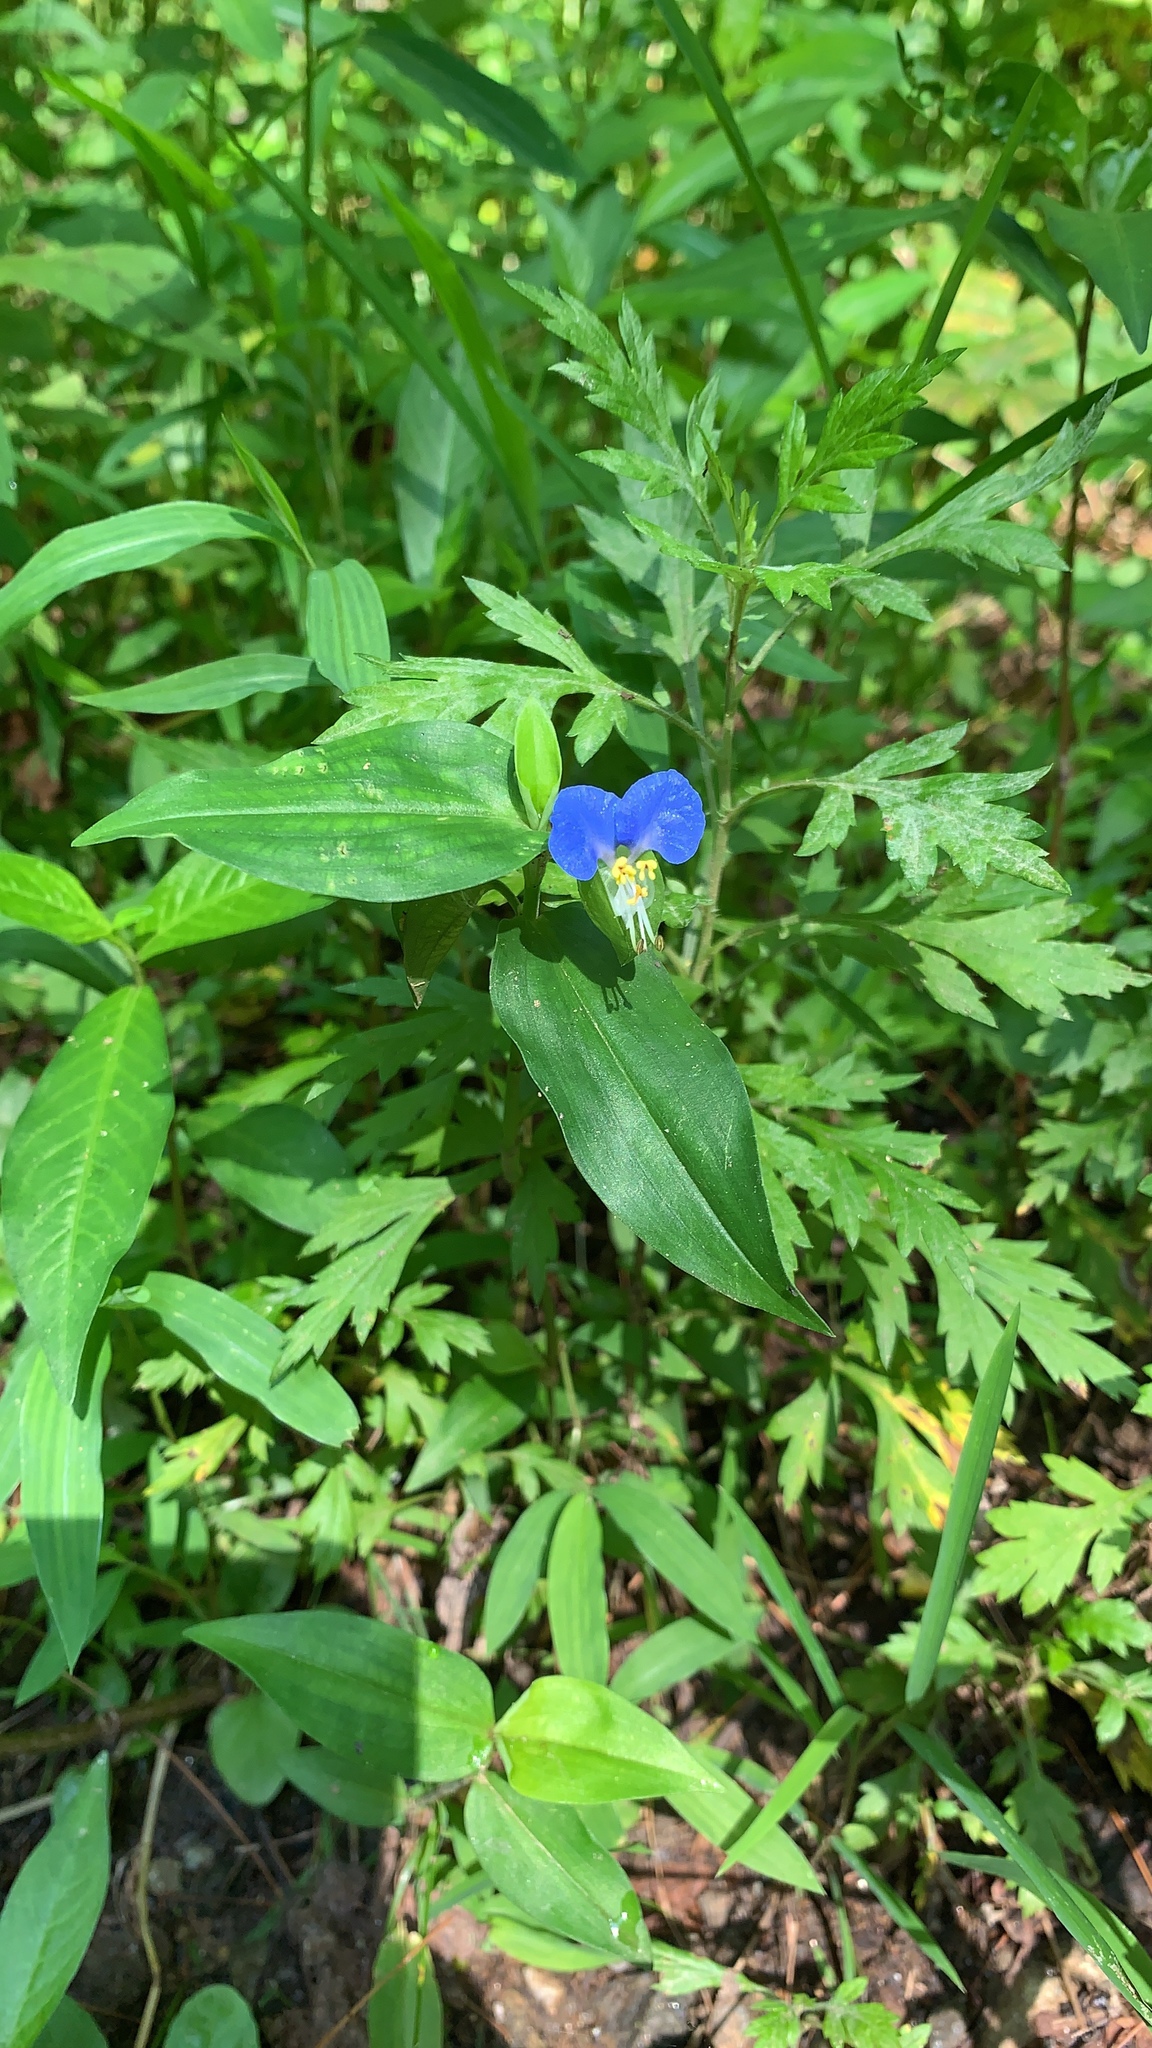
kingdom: Plantae
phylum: Tracheophyta
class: Liliopsida
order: Commelinales
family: Commelinaceae
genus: Commelina
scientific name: Commelina communis
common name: Asiatic dayflower
